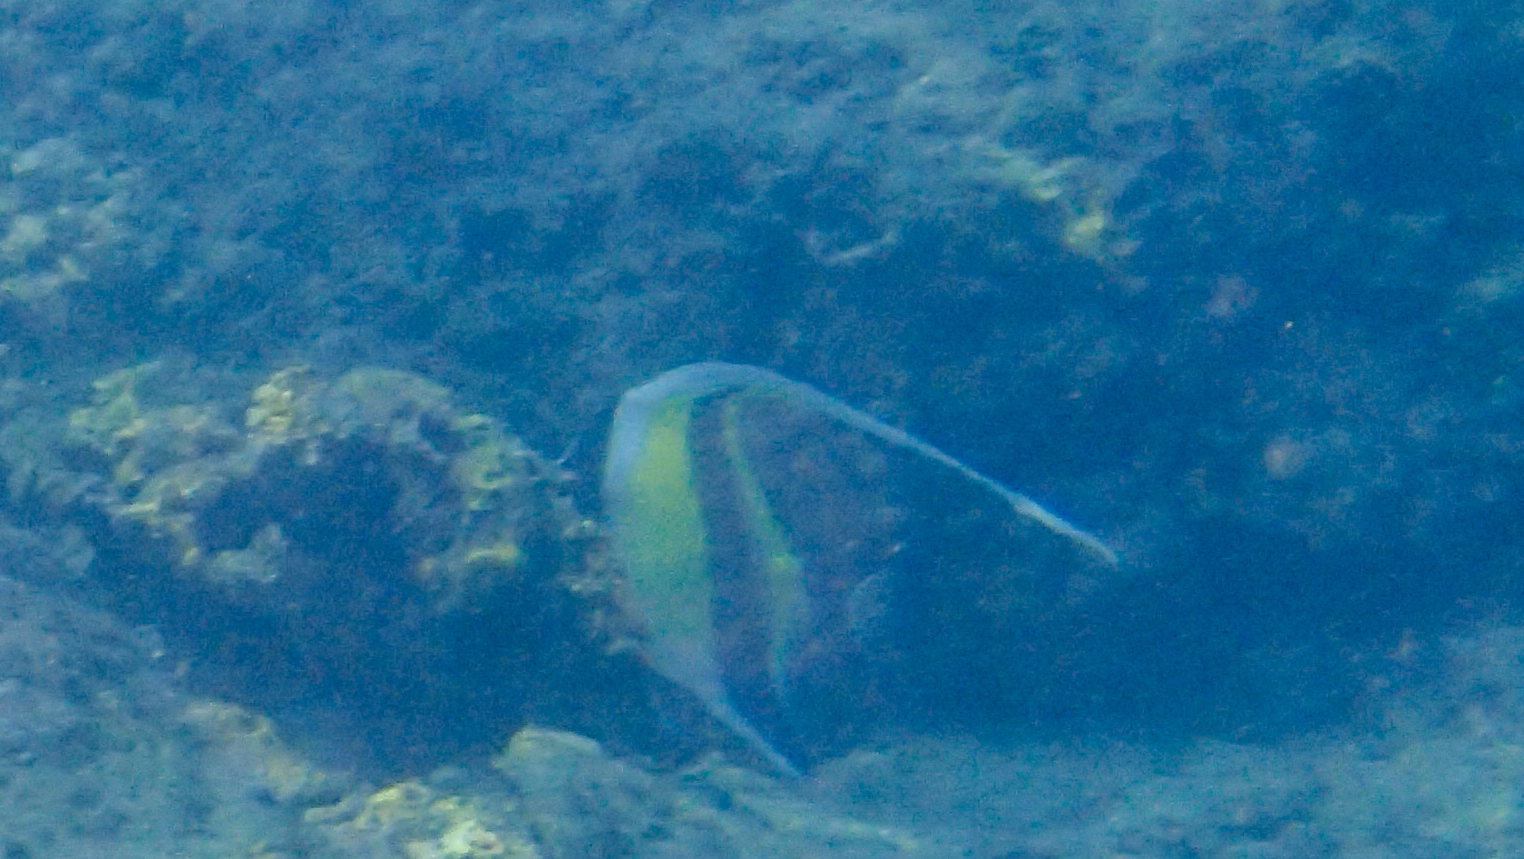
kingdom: Animalia
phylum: Chordata
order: Perciformes
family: Zanclidae
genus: Zanclus
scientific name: Zanclus cornutus
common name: Moorish idol
